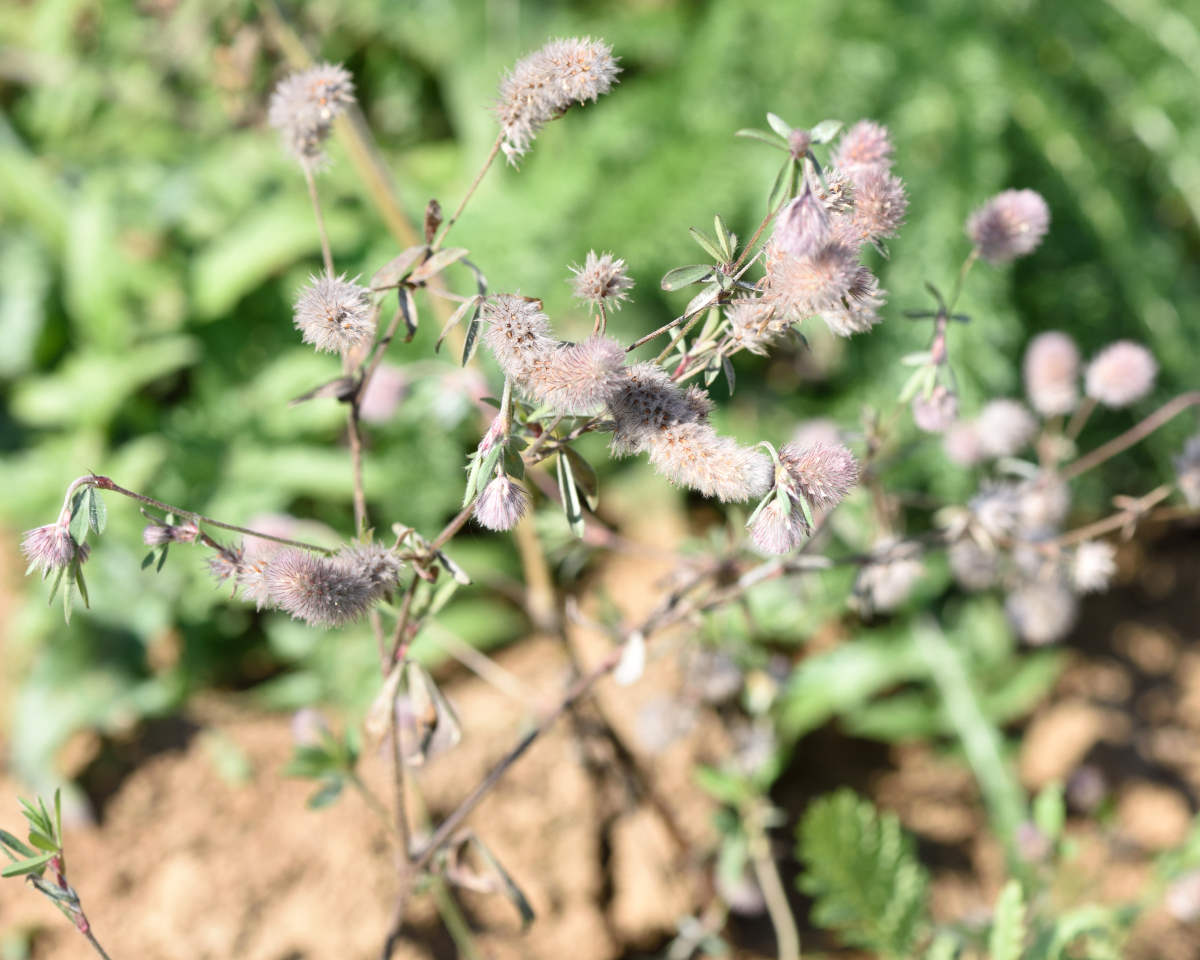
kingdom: Plantae
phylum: Tracheophyta
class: Magnoliopsida
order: Fabales
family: Fabaceae
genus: Trifolium
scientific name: Trifolium arvense
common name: Hare's-foot clover
